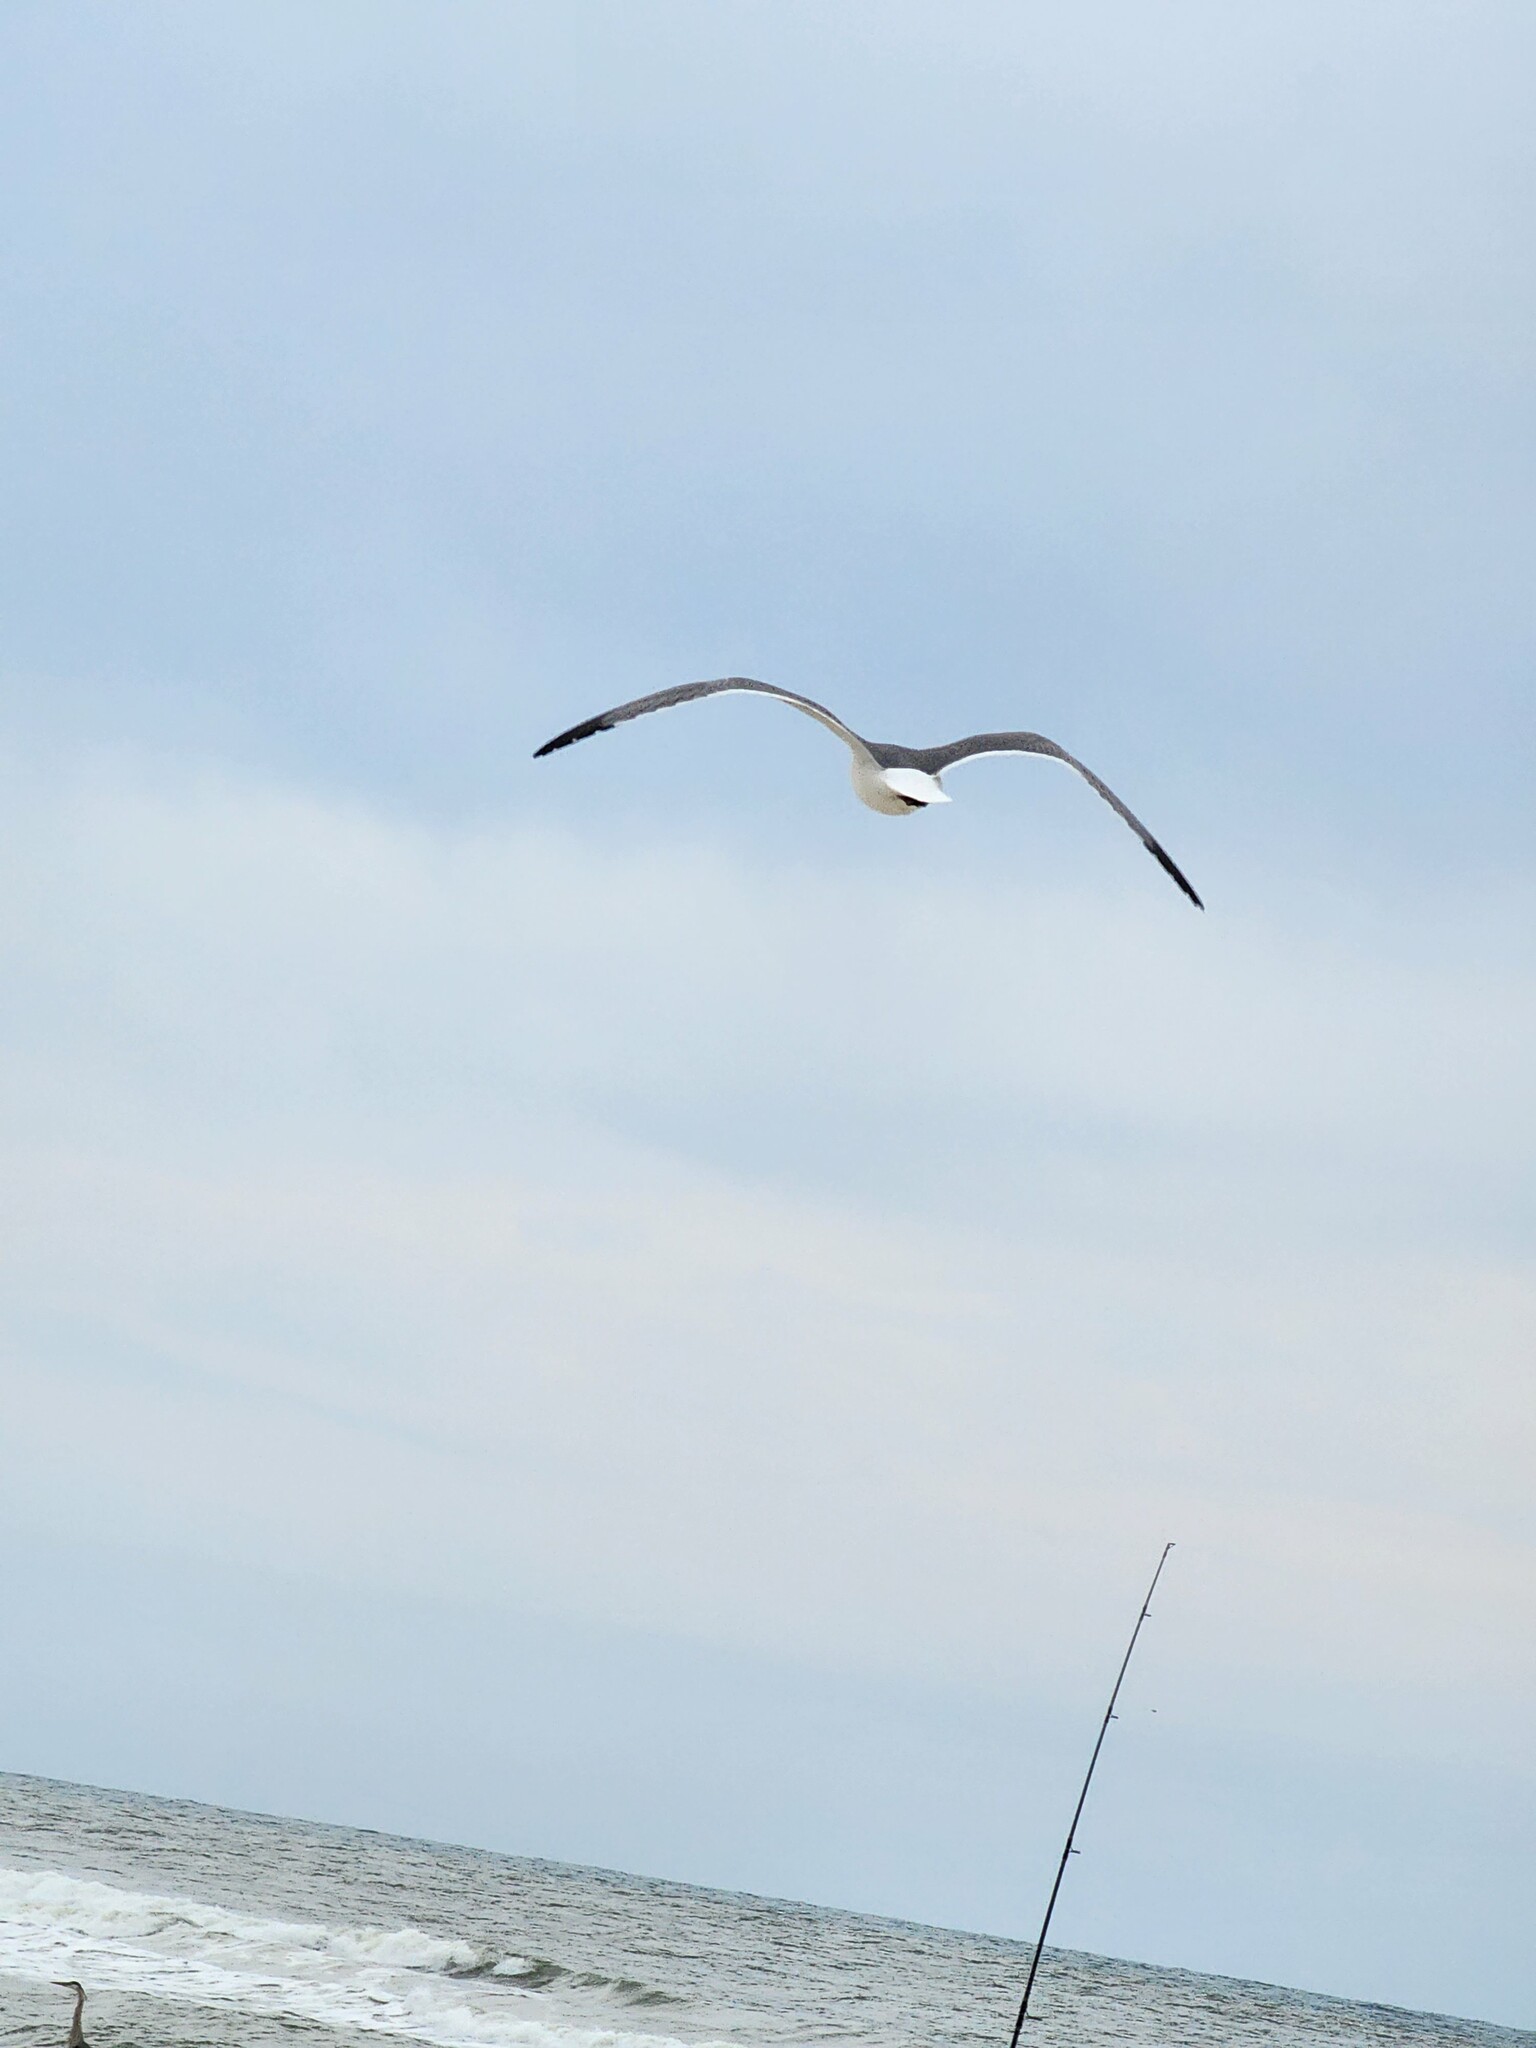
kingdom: Animalia
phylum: Chordata
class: Aves
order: Charadriiformes
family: Laridae
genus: Leucophaeus
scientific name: Leucophaeus atricilla
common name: Laughing gull
